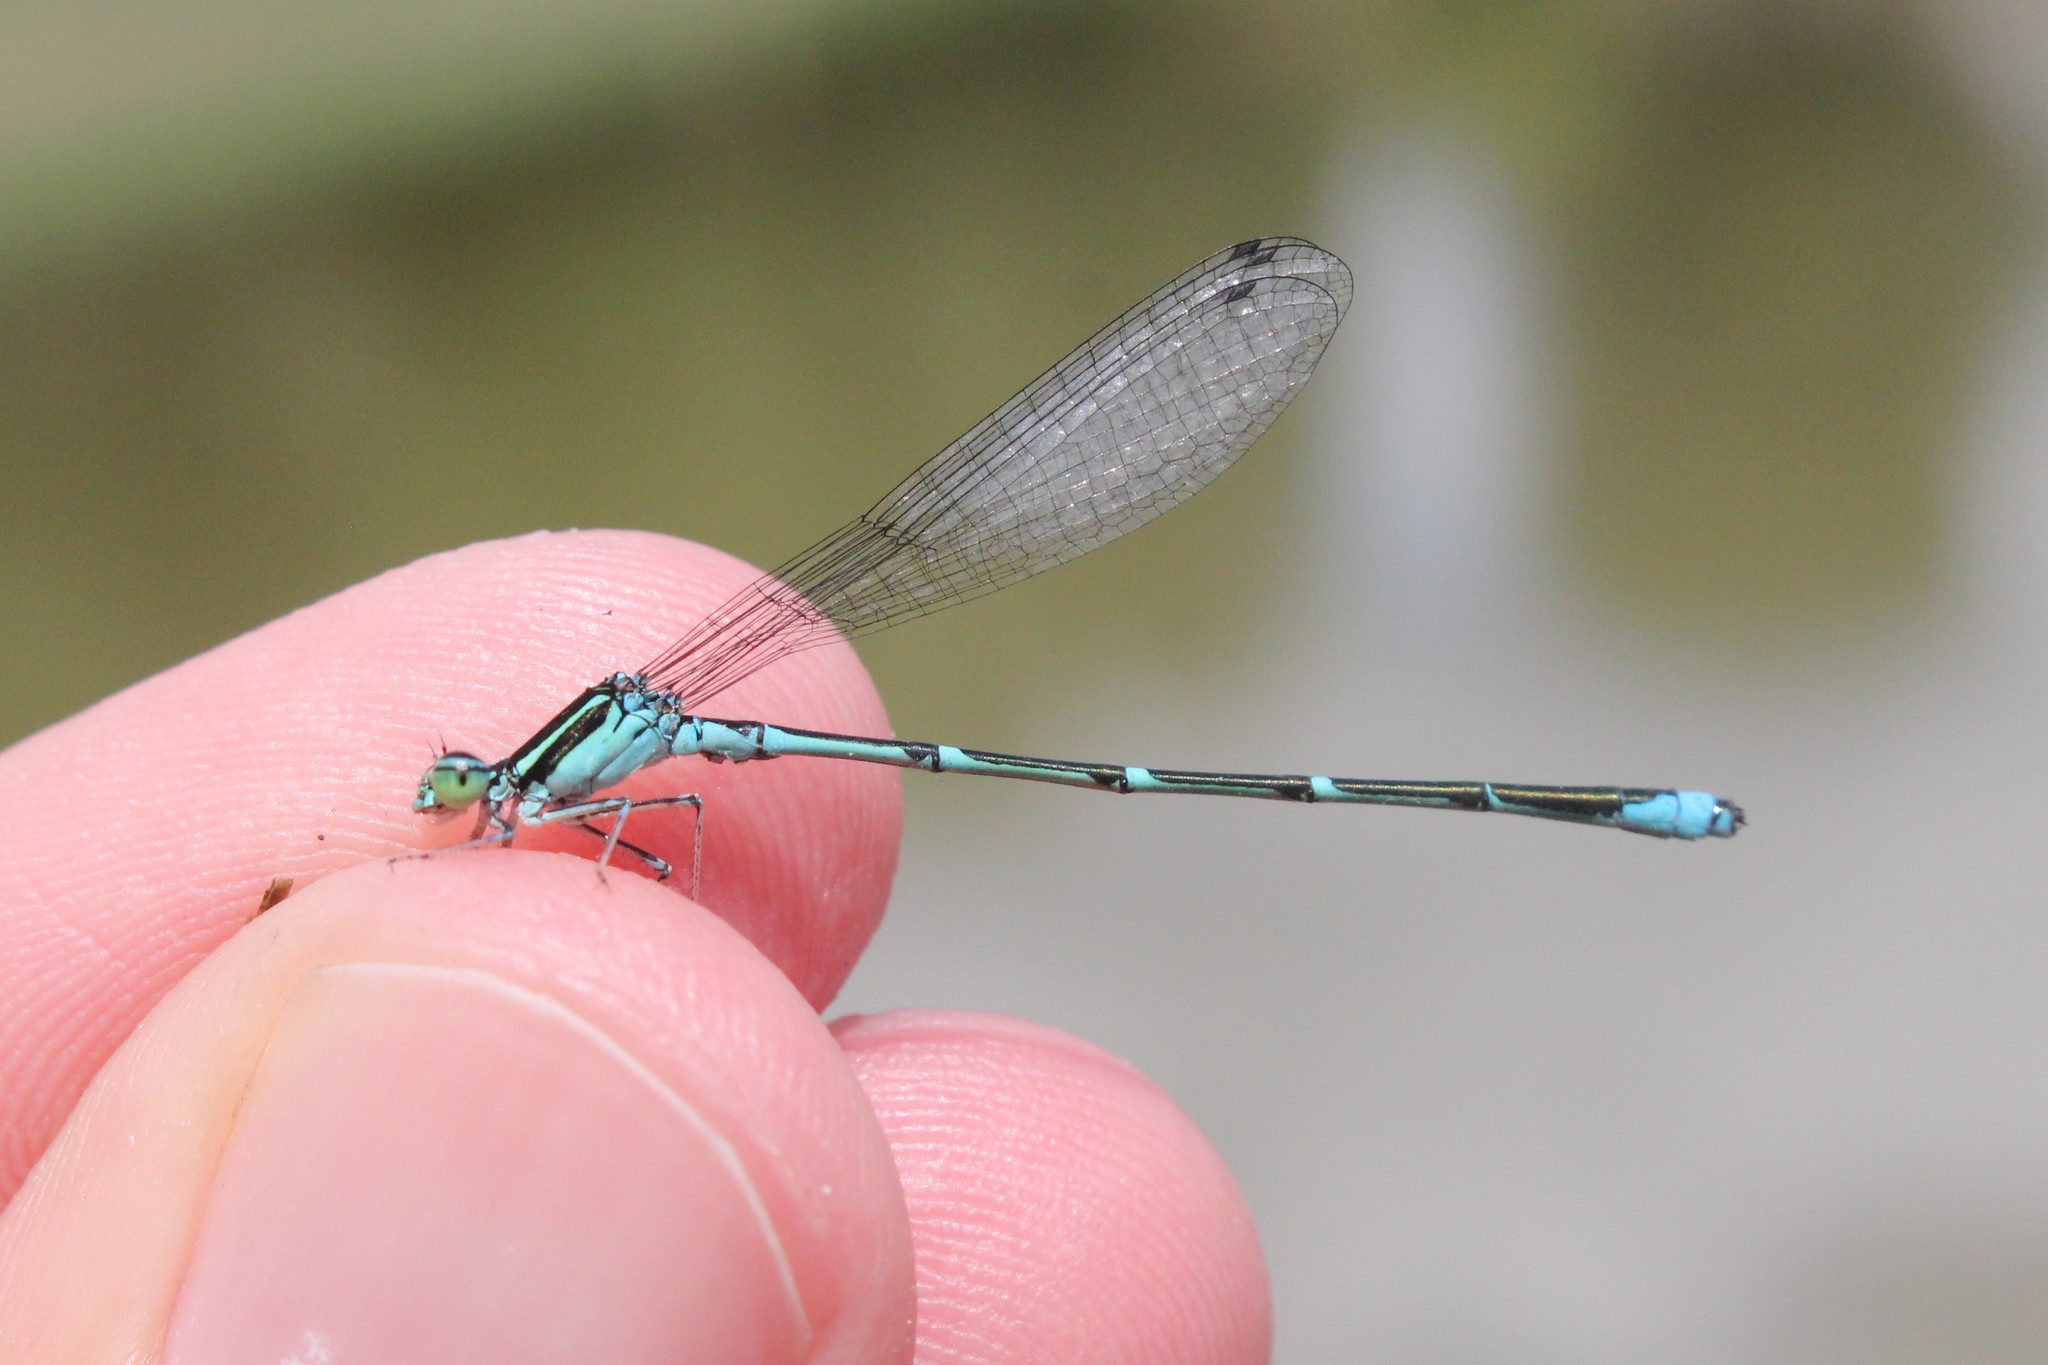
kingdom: Animalia
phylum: Arthropoda
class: Insecta
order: Odonata
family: Coenagrionidae
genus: Enallagma
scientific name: Enallagma exsulans
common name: Stream bluet
